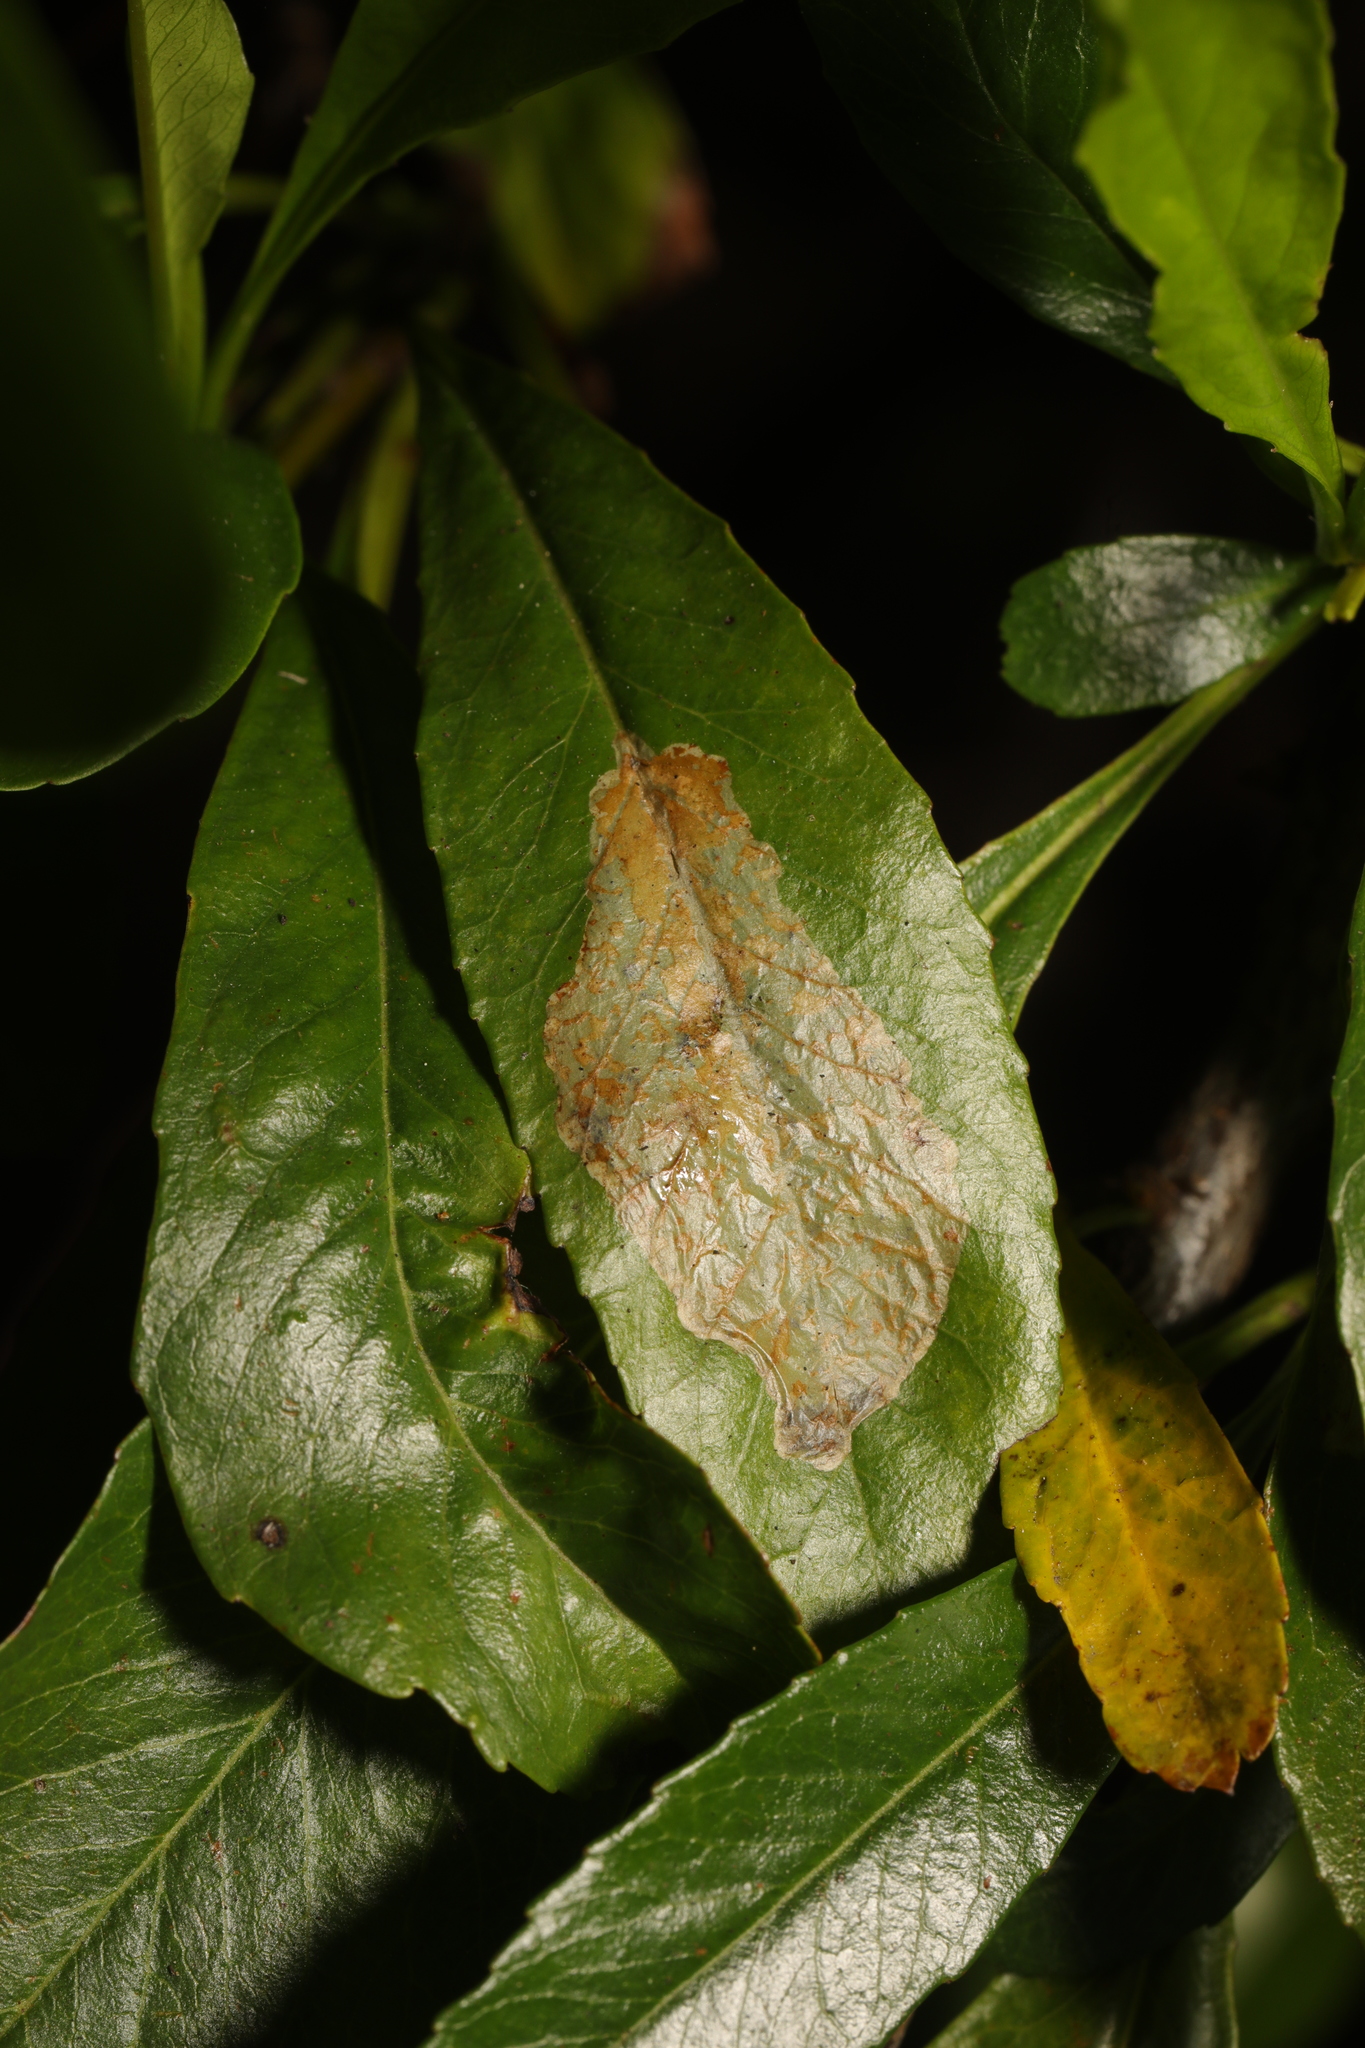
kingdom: Animalia
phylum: Arthropoda
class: Insecta
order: Lepidoptera
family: Gracillariidae
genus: Phyllonorycter
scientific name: Phyllonorycter leucographella
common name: Firethorn leaf-miner
